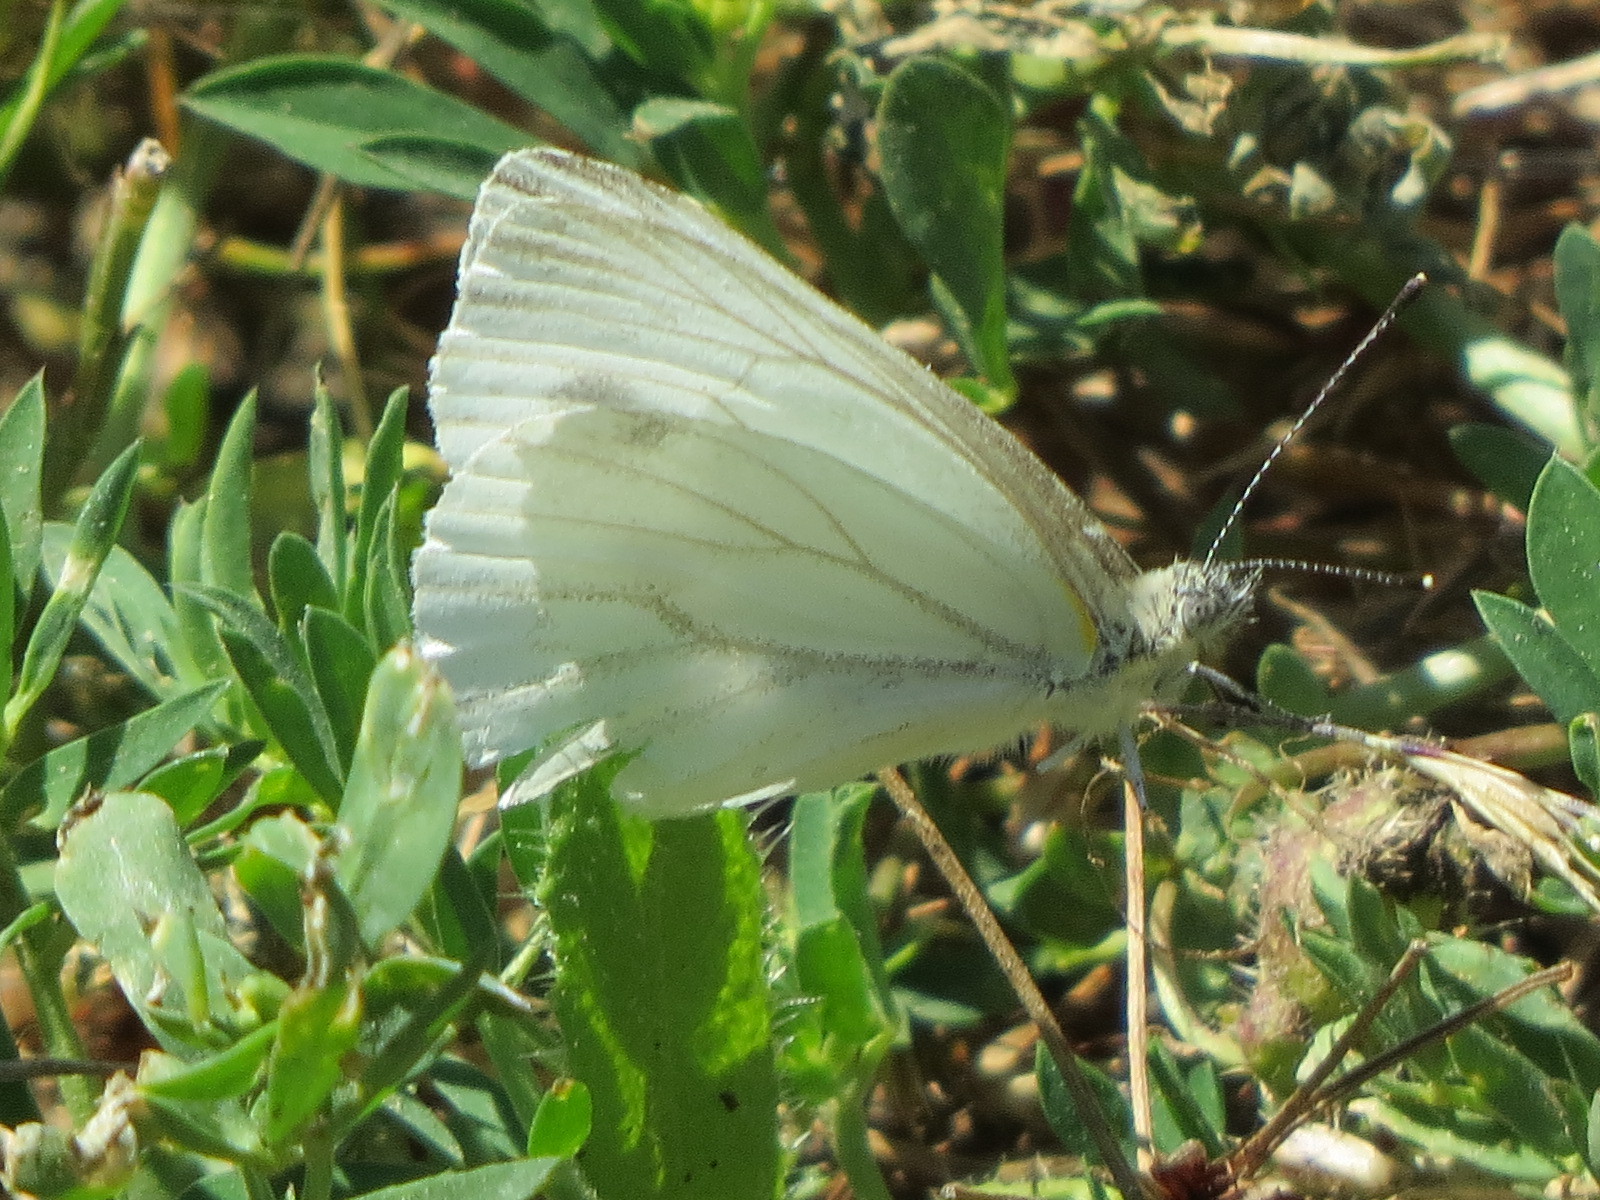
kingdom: Animalia
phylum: Arthropoda
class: Insecta
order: Lepidoptera
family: Pieridae
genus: Pieris
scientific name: Pieris marginalis
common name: Margined white
